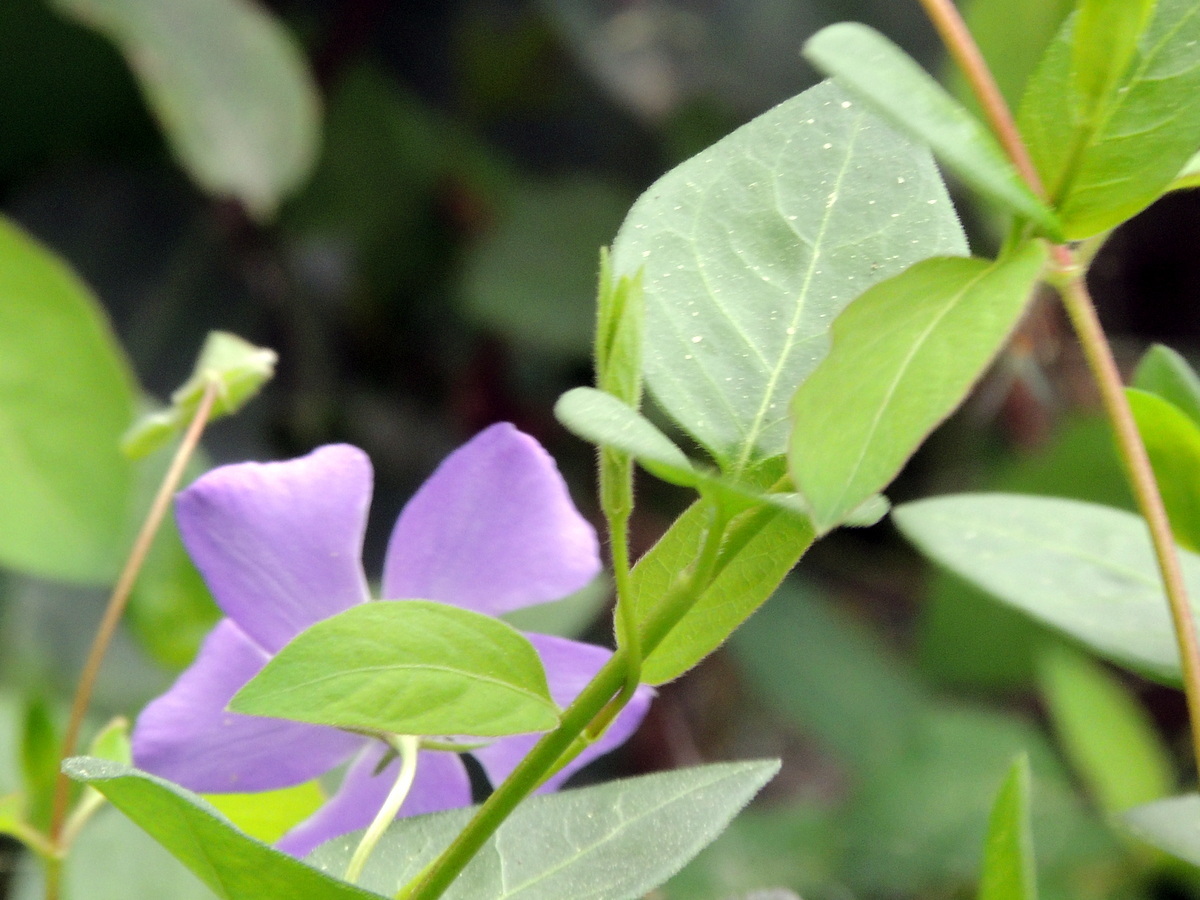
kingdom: Plantae
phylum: Tracheophyta
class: Magnoliopsida
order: Gentianales
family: Apocynaceae
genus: Vinca
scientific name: Vinca major
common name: Greater periwinkle
